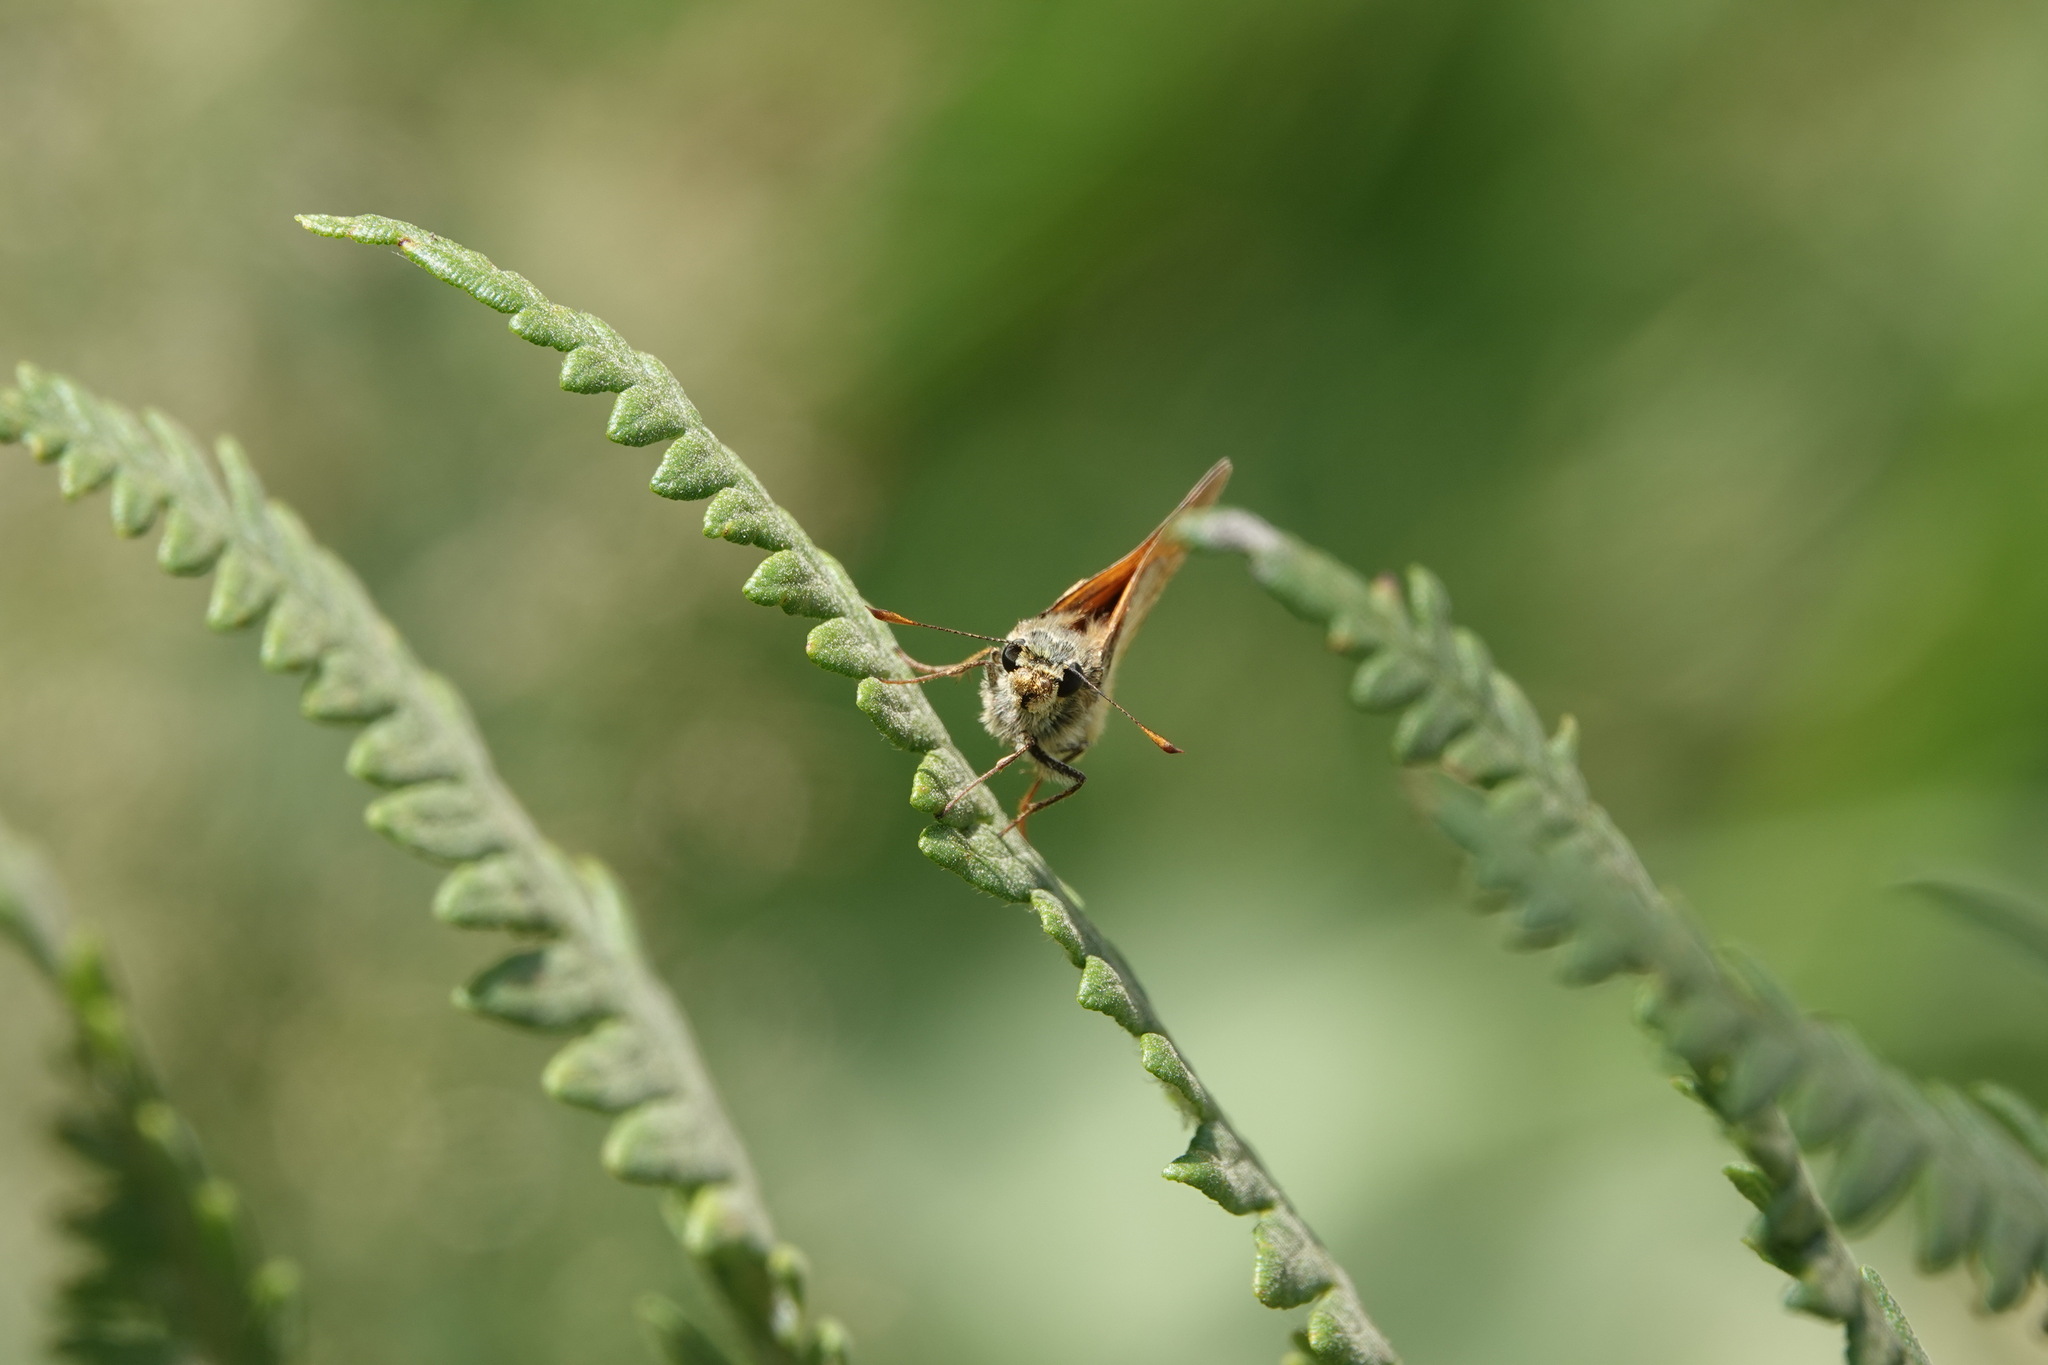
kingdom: Animalia
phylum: Arthropoda
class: Insecta
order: Lepidoptera
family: Hesperiidae
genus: Ochlodes
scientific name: Ochlodes venata
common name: Large skipper
